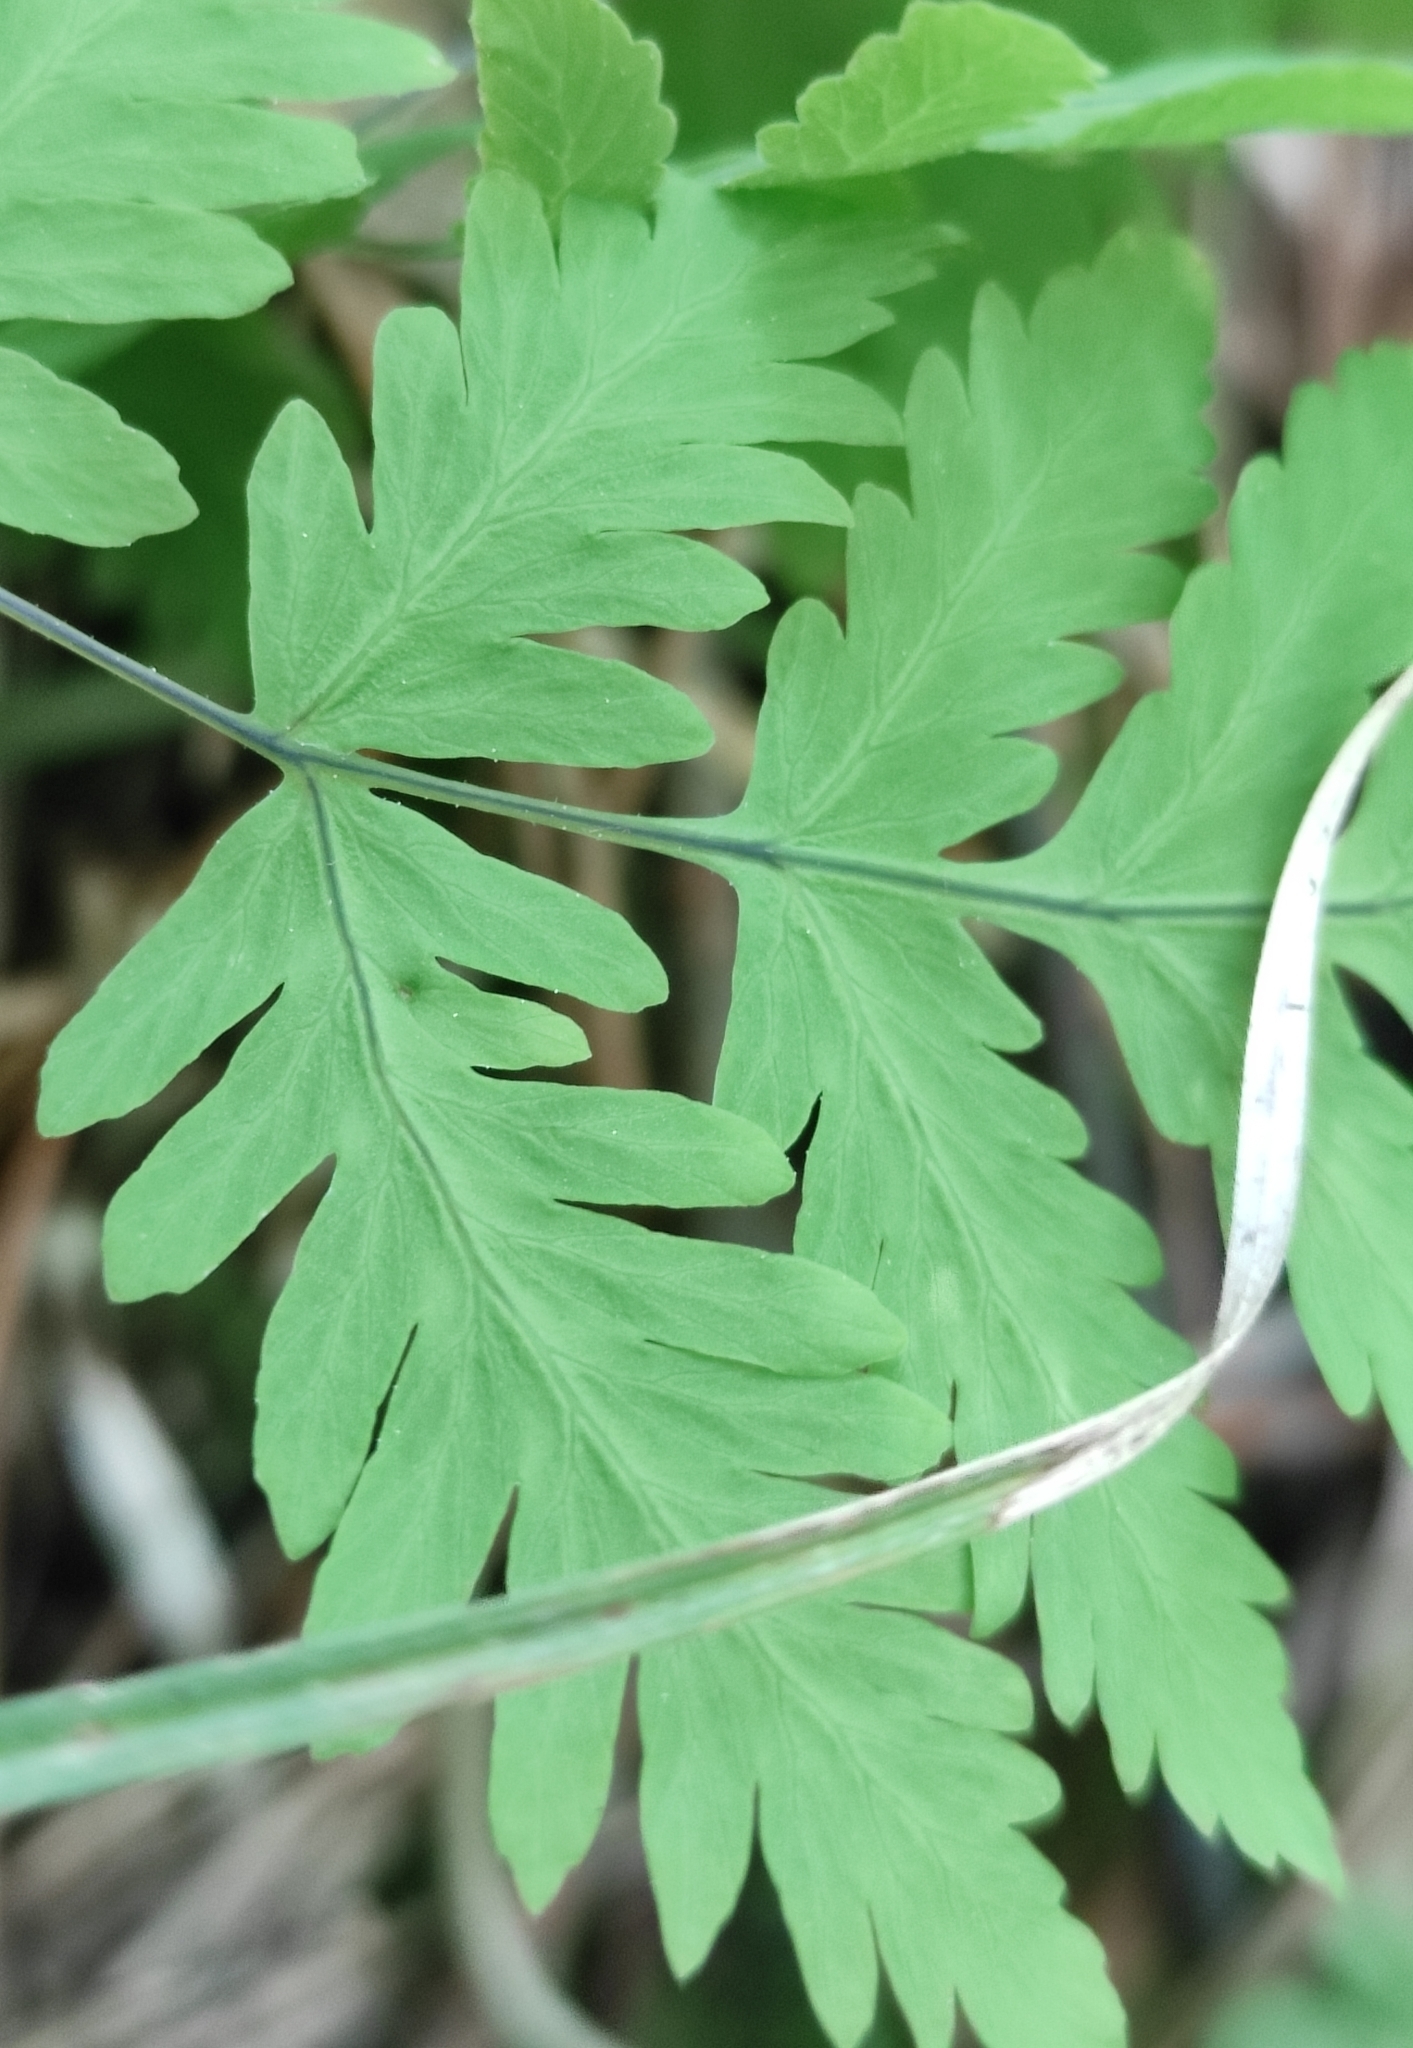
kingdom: Plantae
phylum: Tracheophyta
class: Polypodiopsida
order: Polypodiales
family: Cystopteridaceae
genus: Gymnocarpium
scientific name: Gymnocarpium dryopteris
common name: Oak fern
